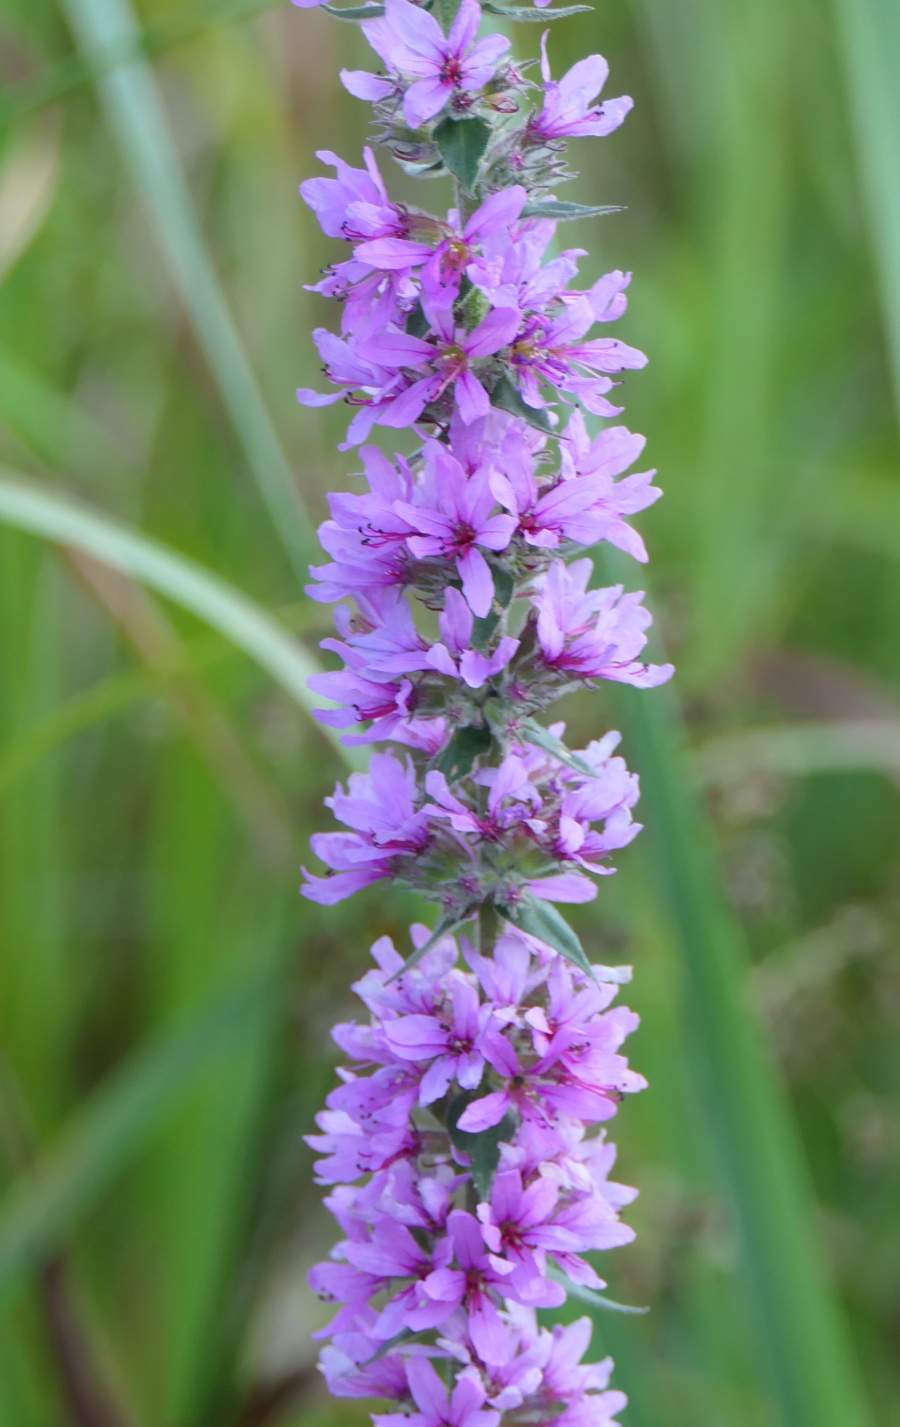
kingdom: Plantae
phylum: Tracheophyta
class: Magnoliopsida
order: Myrtales
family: Lythraceae
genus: Lythrum
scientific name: Lythrum salicaria
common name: Purple loosestrife
